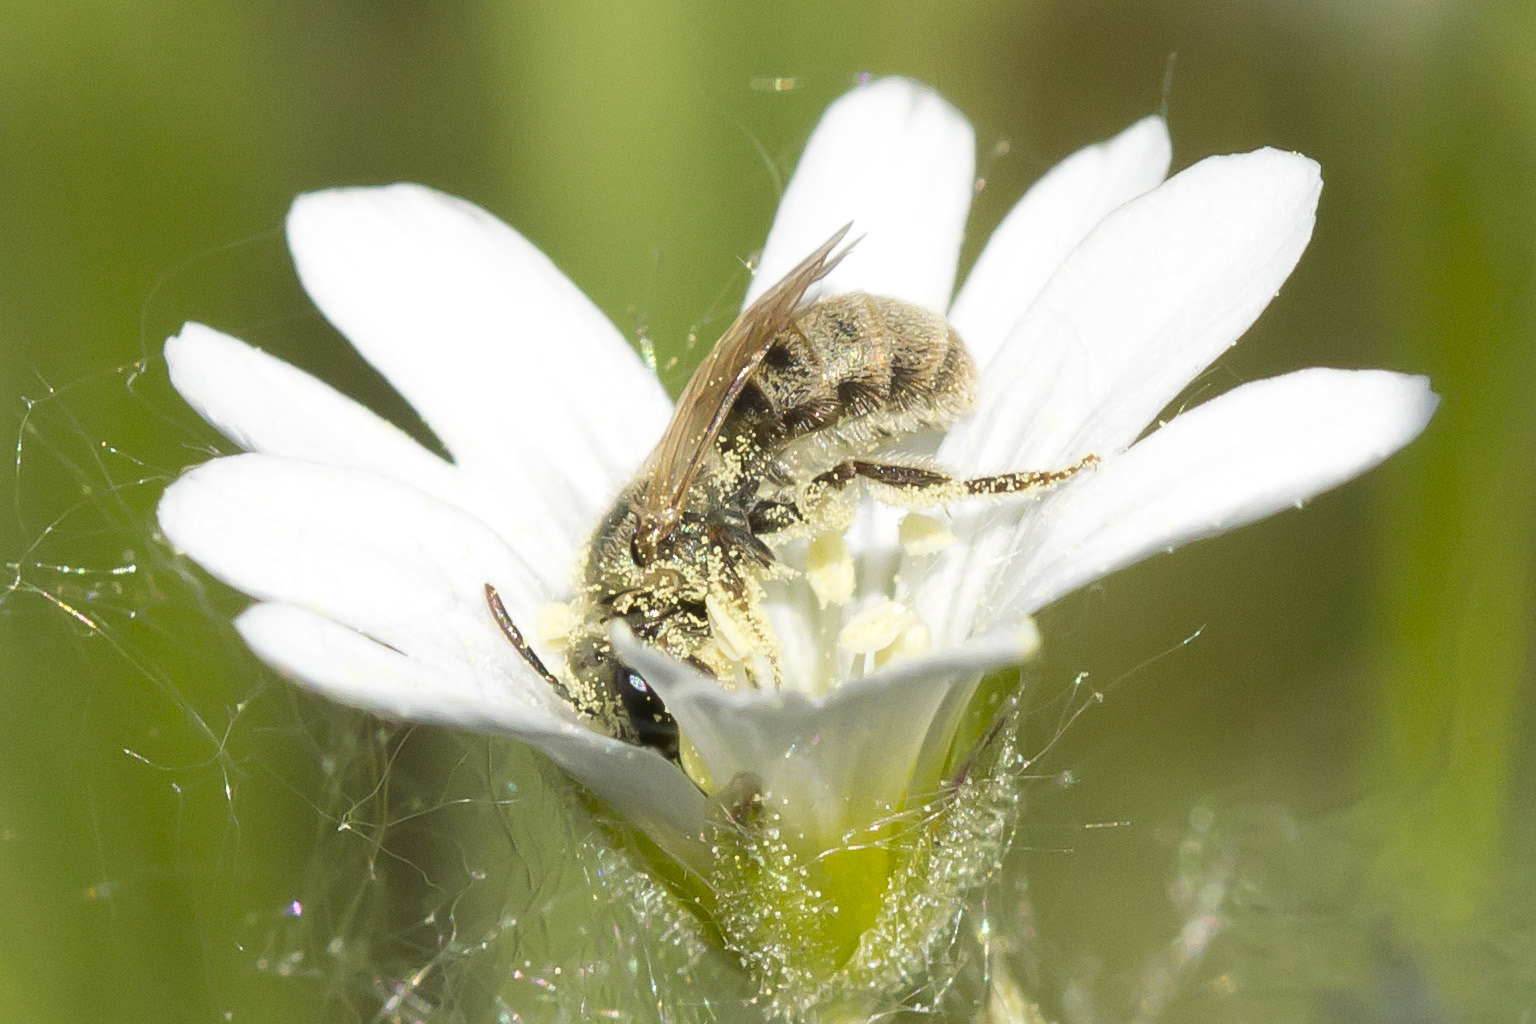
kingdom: Animalia
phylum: Arthropoda
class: Insecta
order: Hymenoptera
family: Halictidae
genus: Lasioglossum
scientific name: Lasioglossum leucocomum
